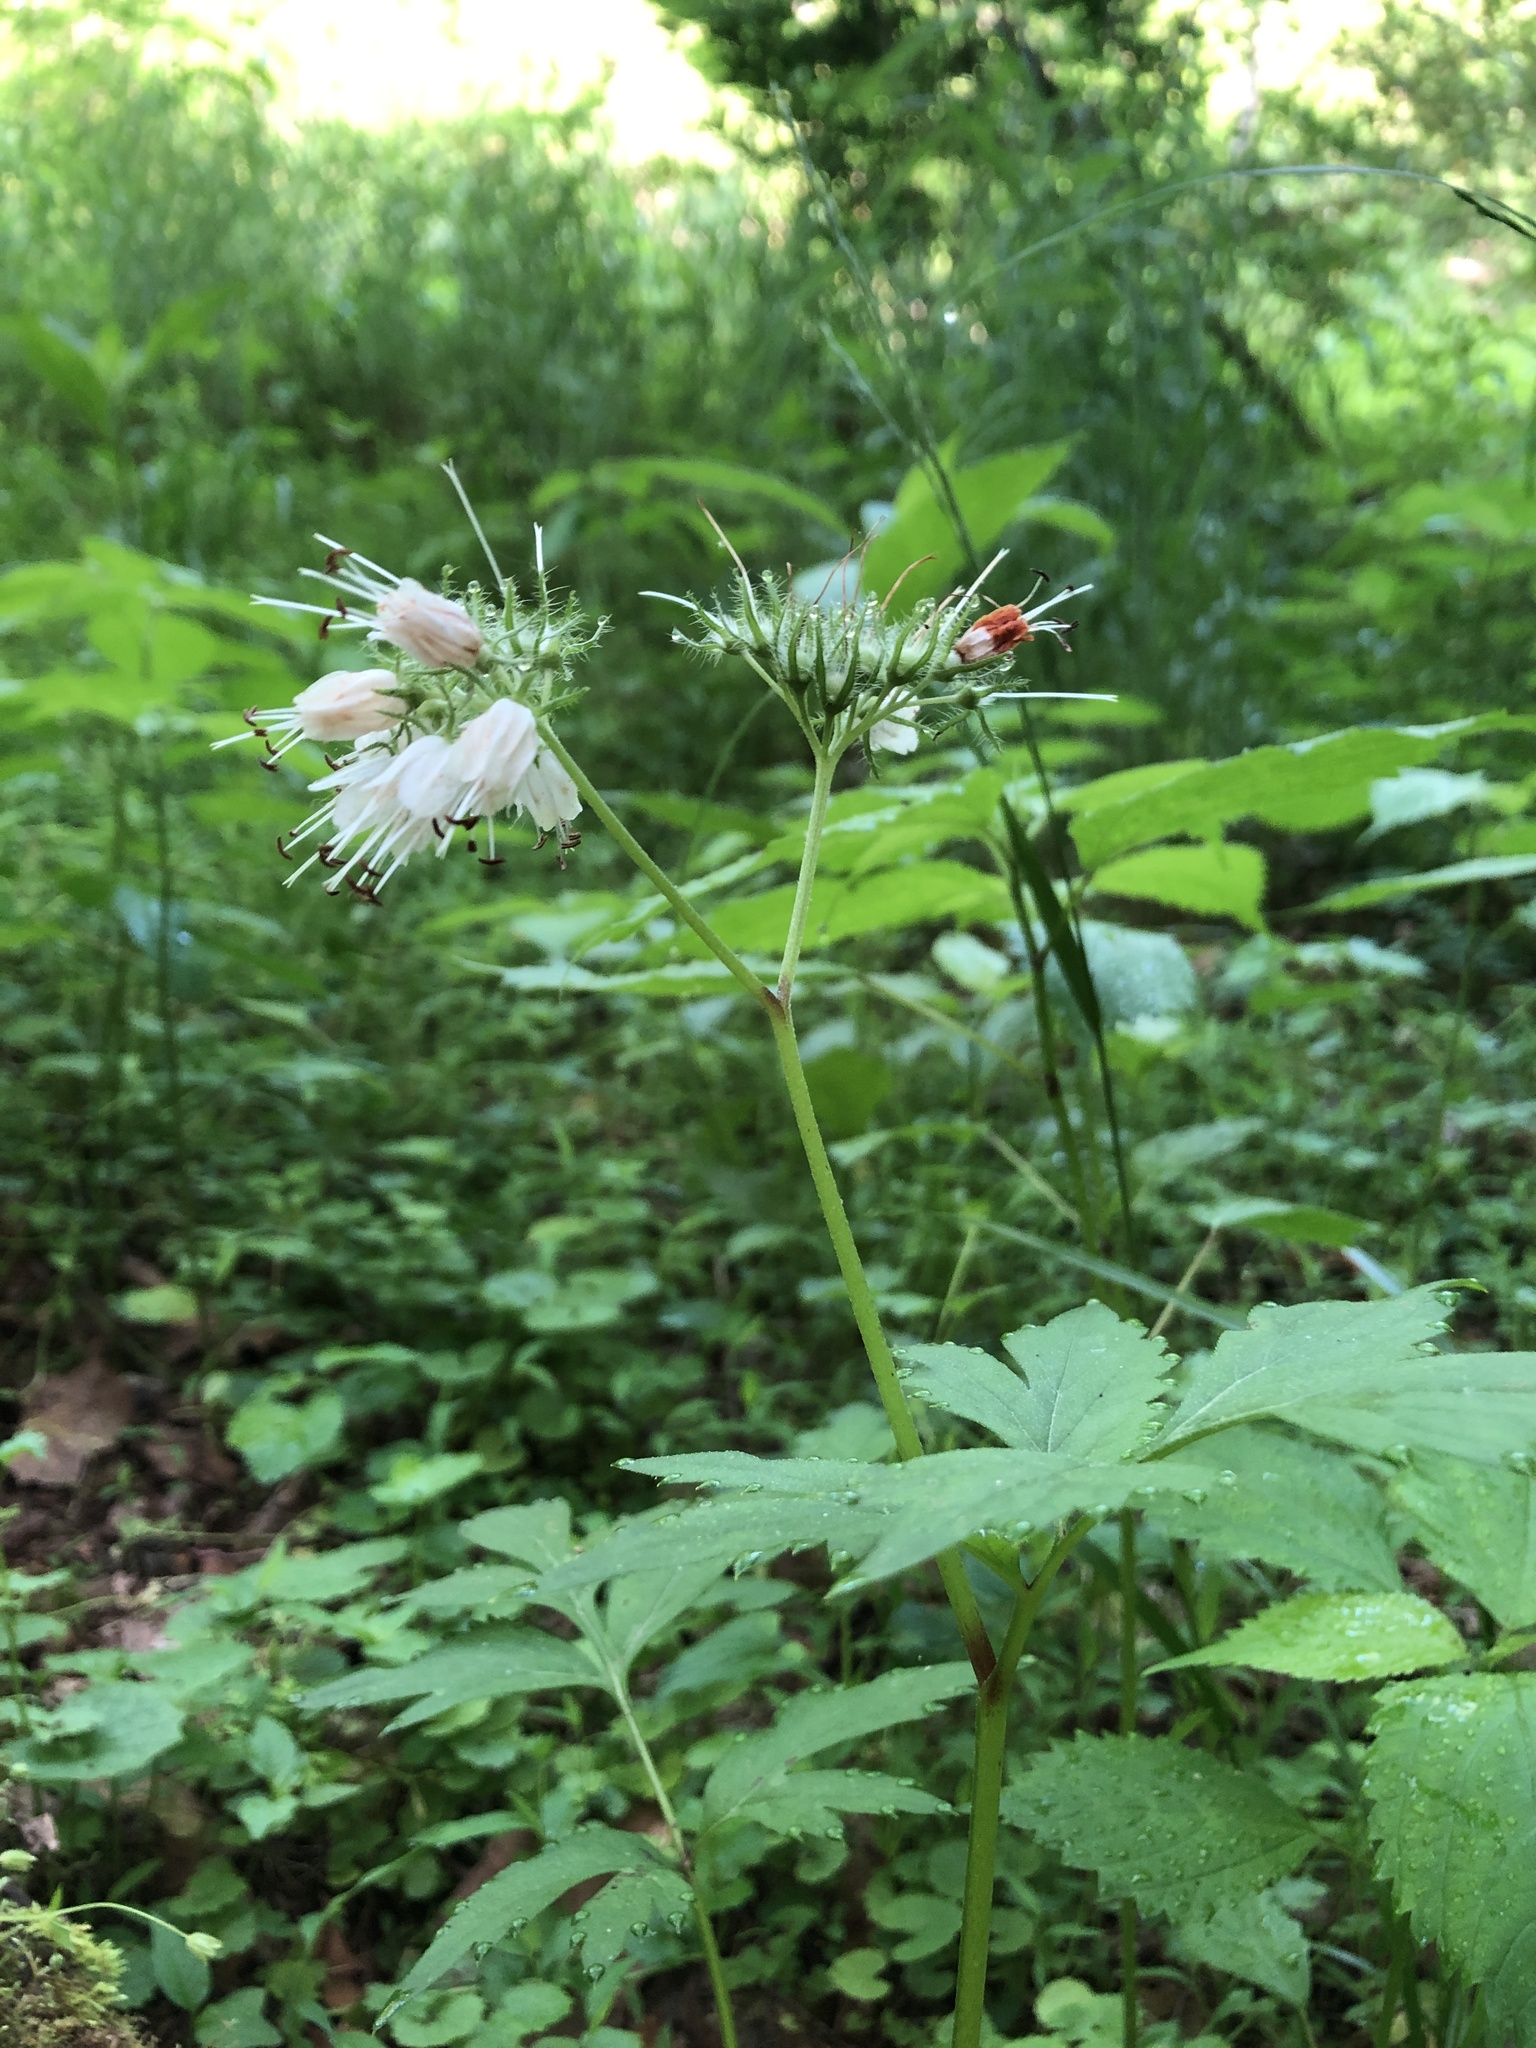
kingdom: Plantae
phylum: Tracheophyta
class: Magnoliopsida
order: Boraginales
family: Hydrophyllaceae
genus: Hydrophyllum
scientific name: Hydrophyllum virginianum
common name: Virginia waterleaf
